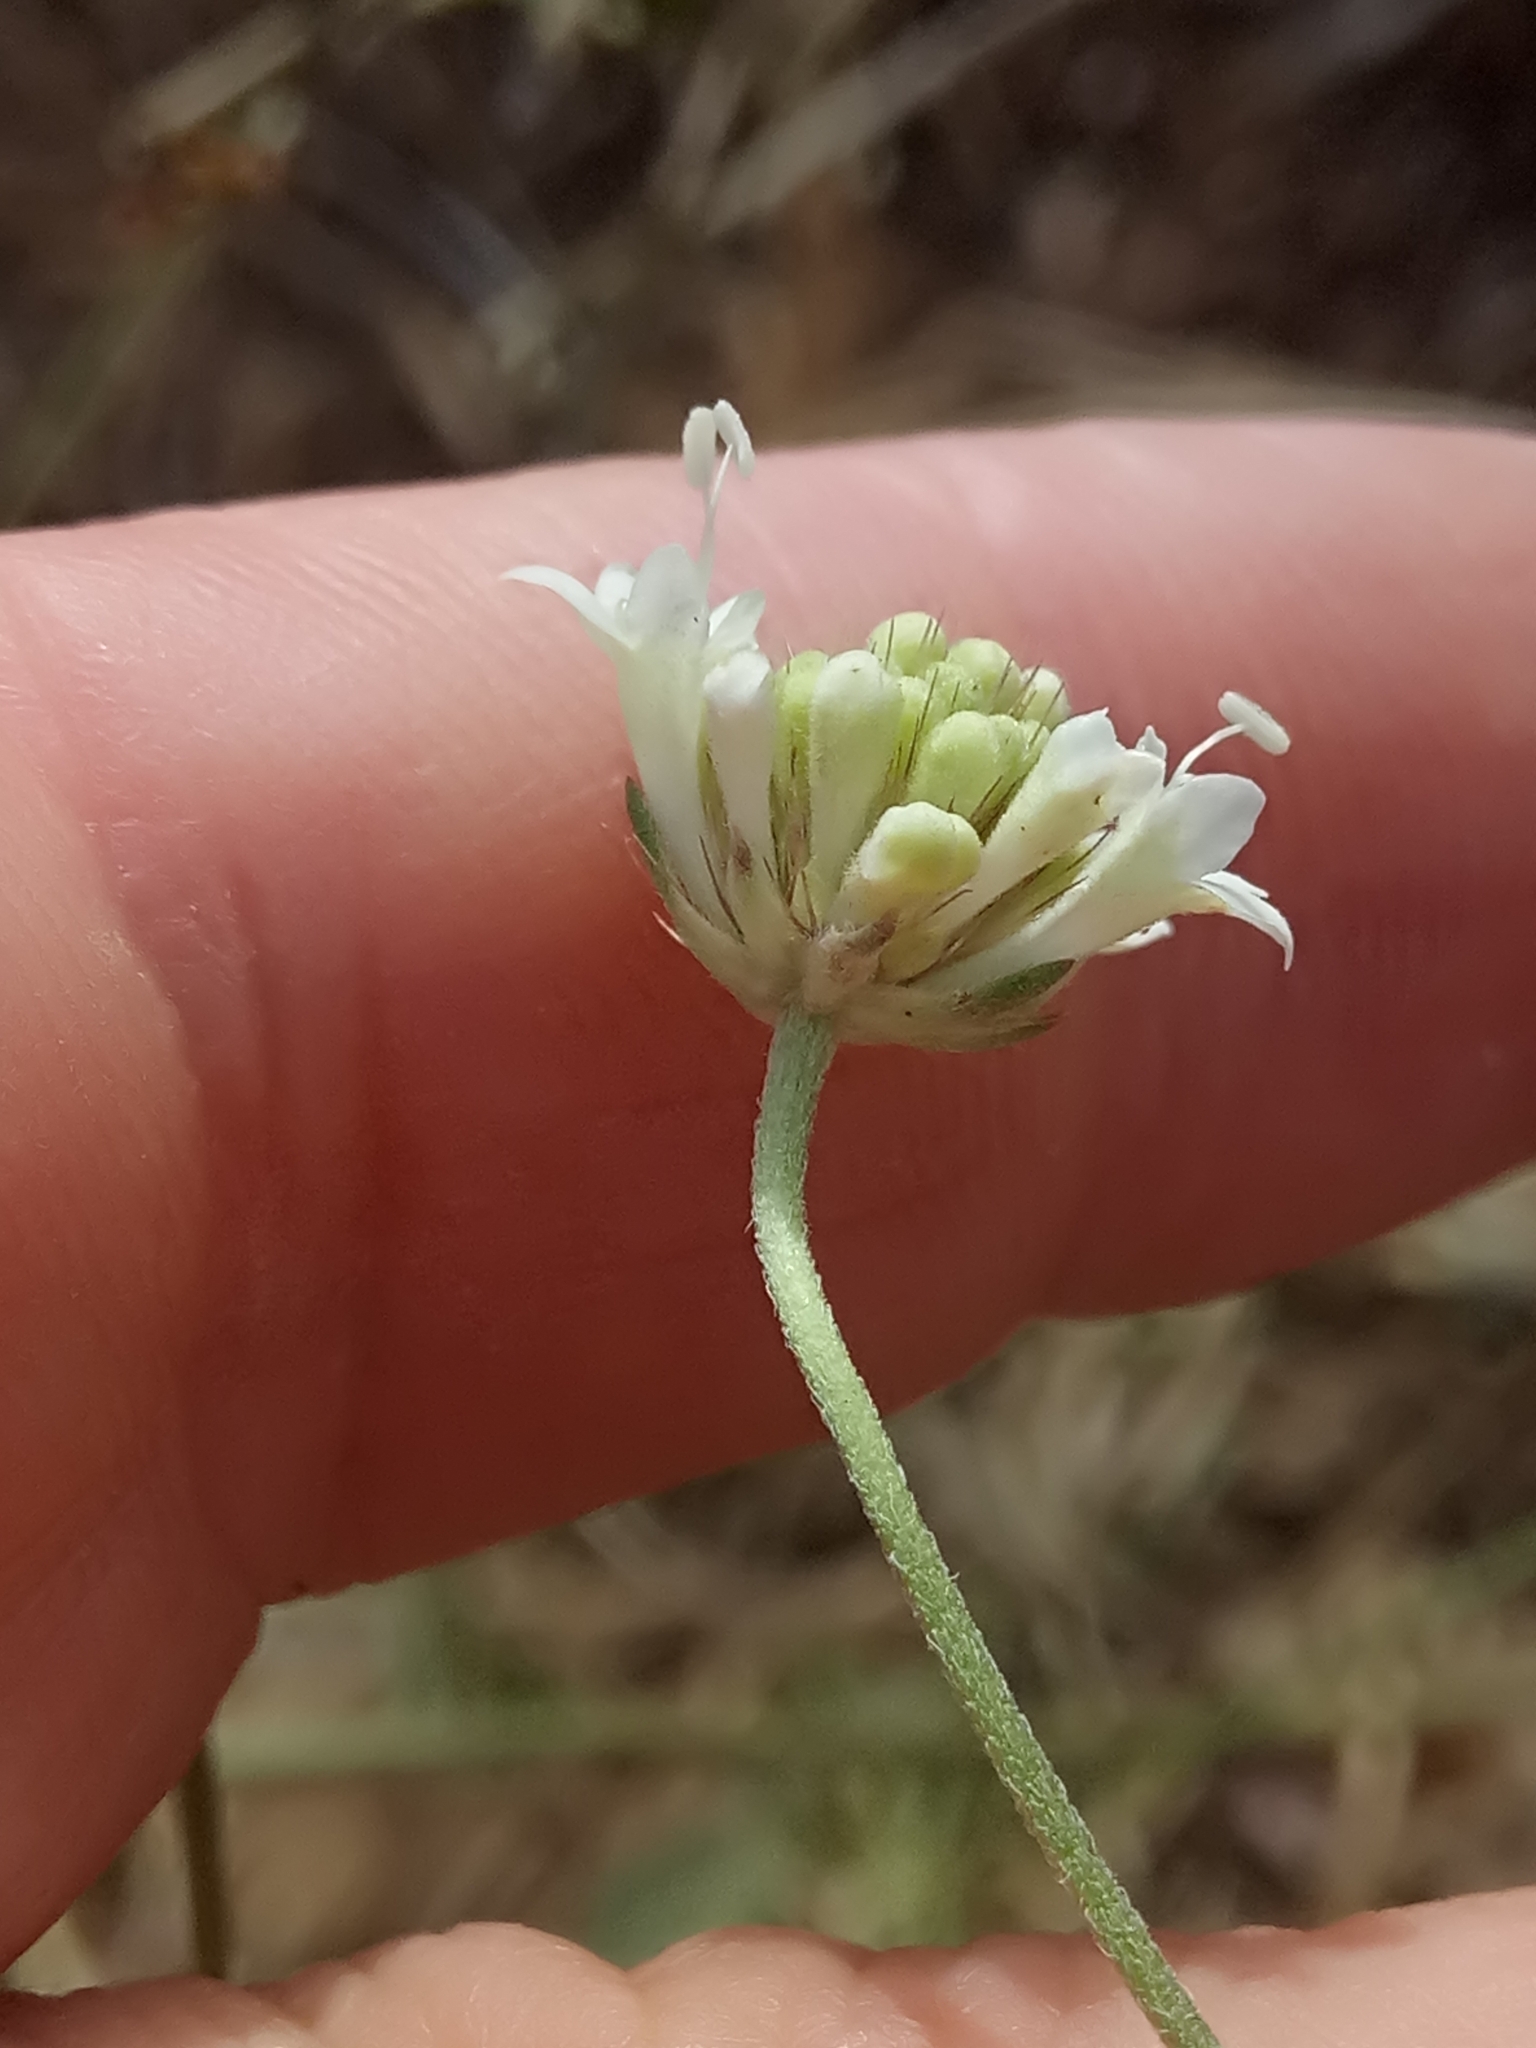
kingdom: Plantae
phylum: Tracheophyta
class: Magnoliopsida
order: Dipsacales
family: Caprifoliaceae
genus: Sixalix
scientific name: Sixalix maritima
